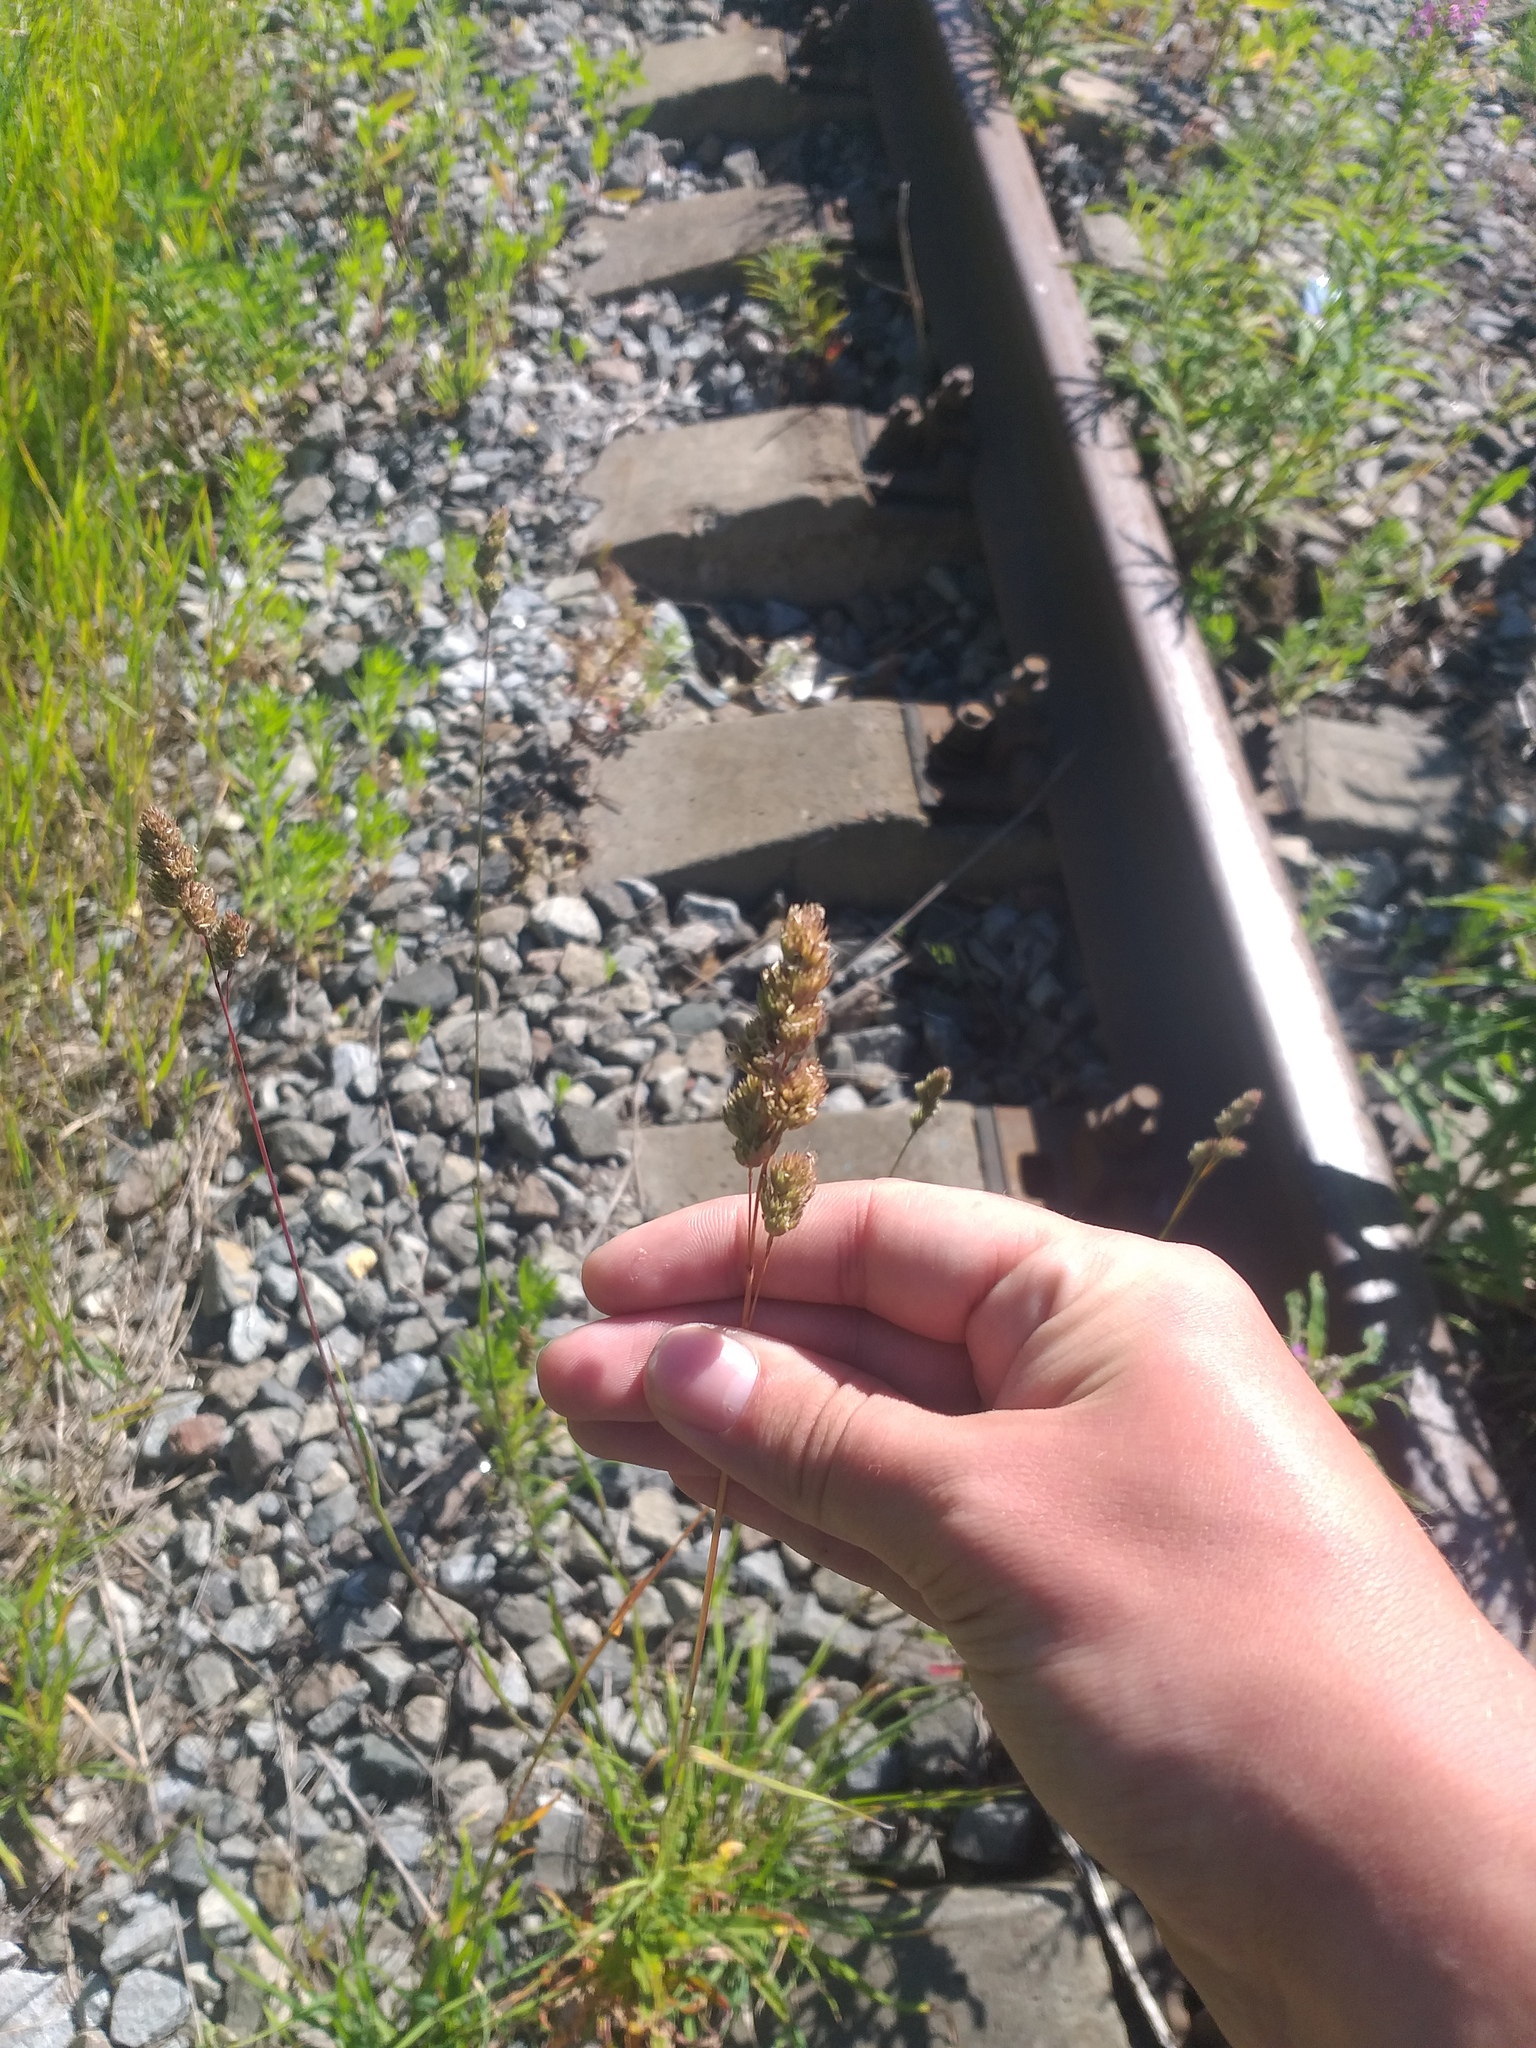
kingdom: Plantae
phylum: Tracheophyta
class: Liliopsida
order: Poales
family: Poaceae
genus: Dactylis
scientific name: Dactylis glomerata
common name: Orchardgrass
